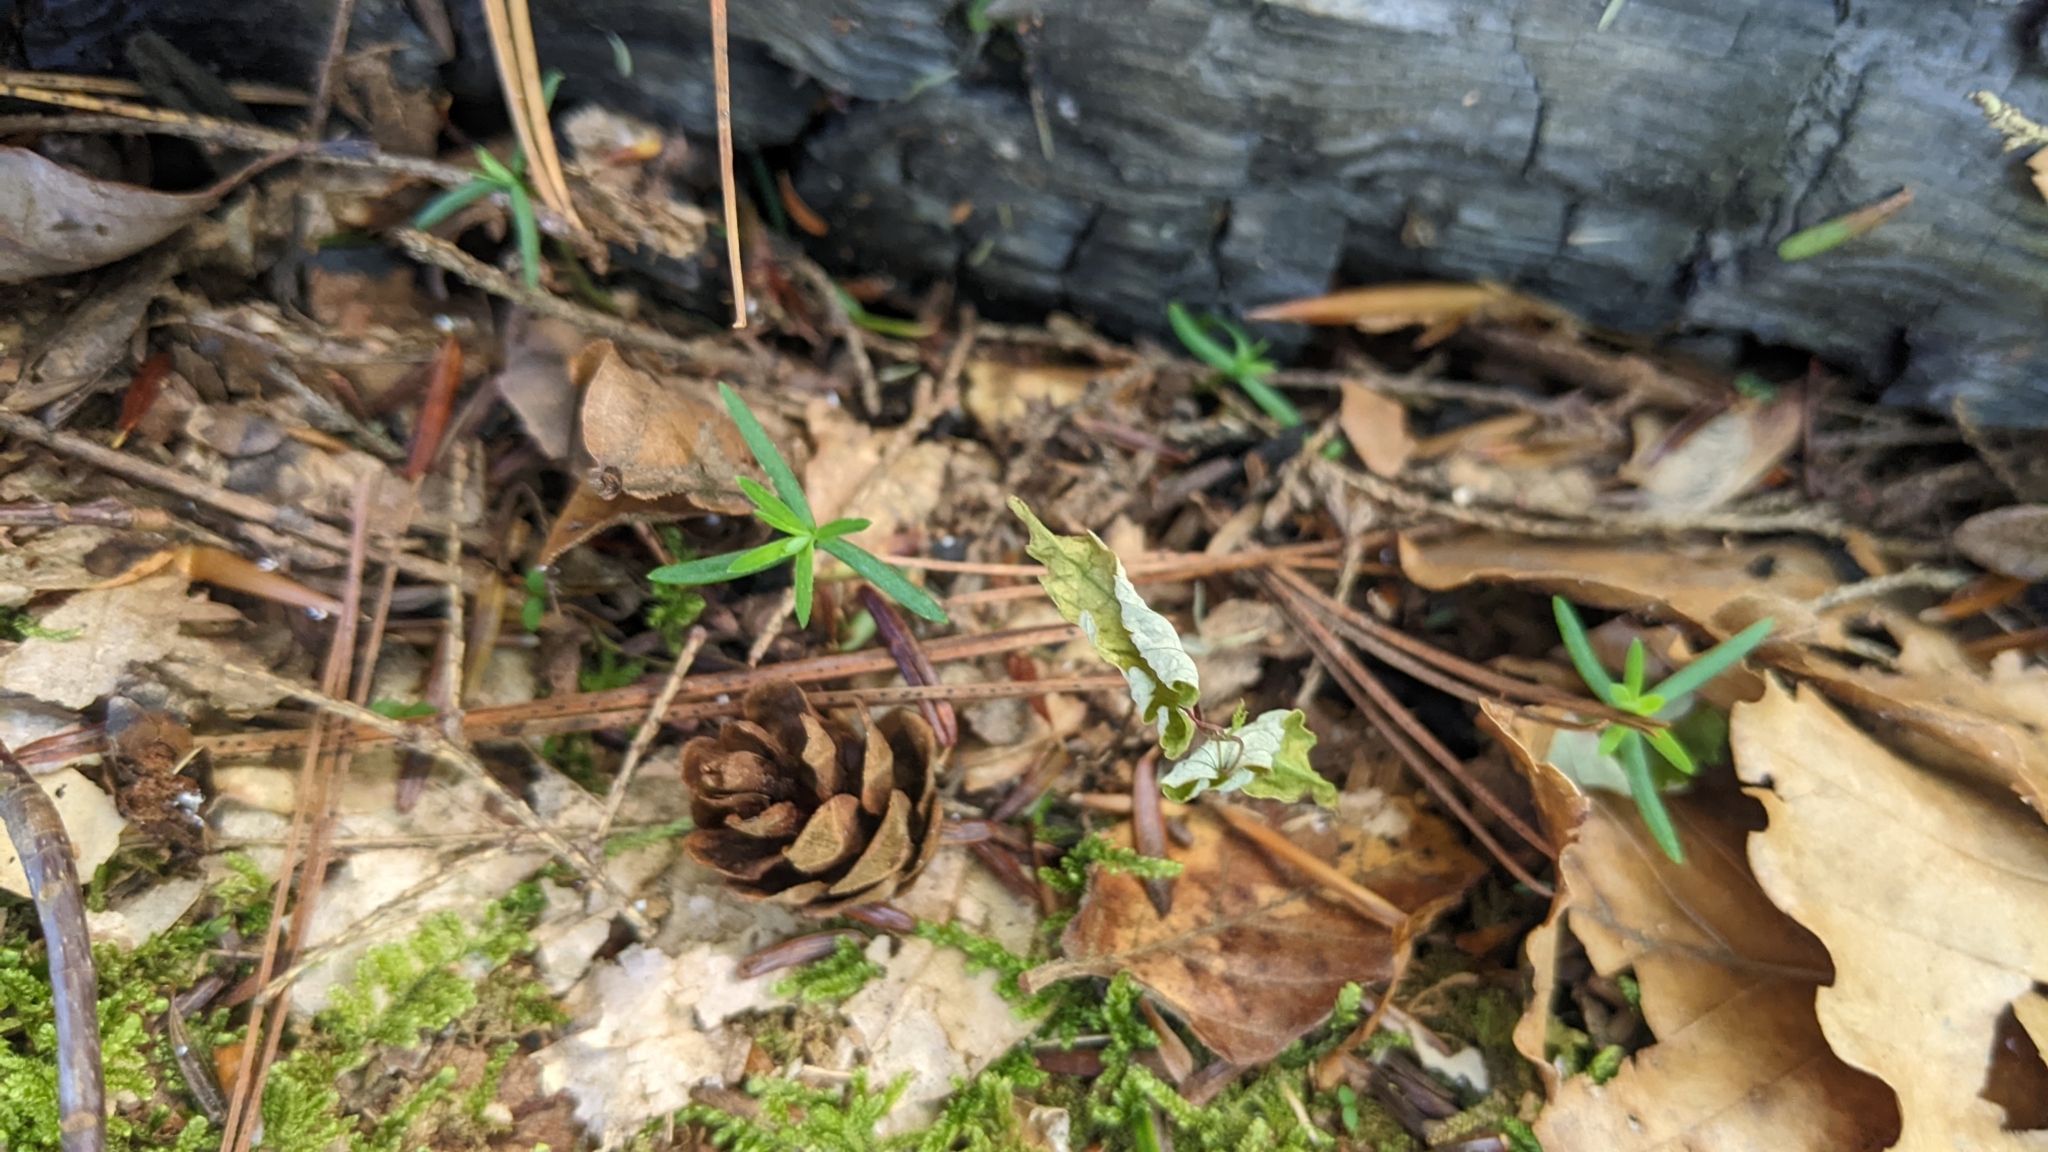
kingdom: Plantae
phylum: Tracheophyta
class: Pinopsida
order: Pinales
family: Pinaceae
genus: Tsuga
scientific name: Tsuga canadensis
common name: Eastern hemlock
